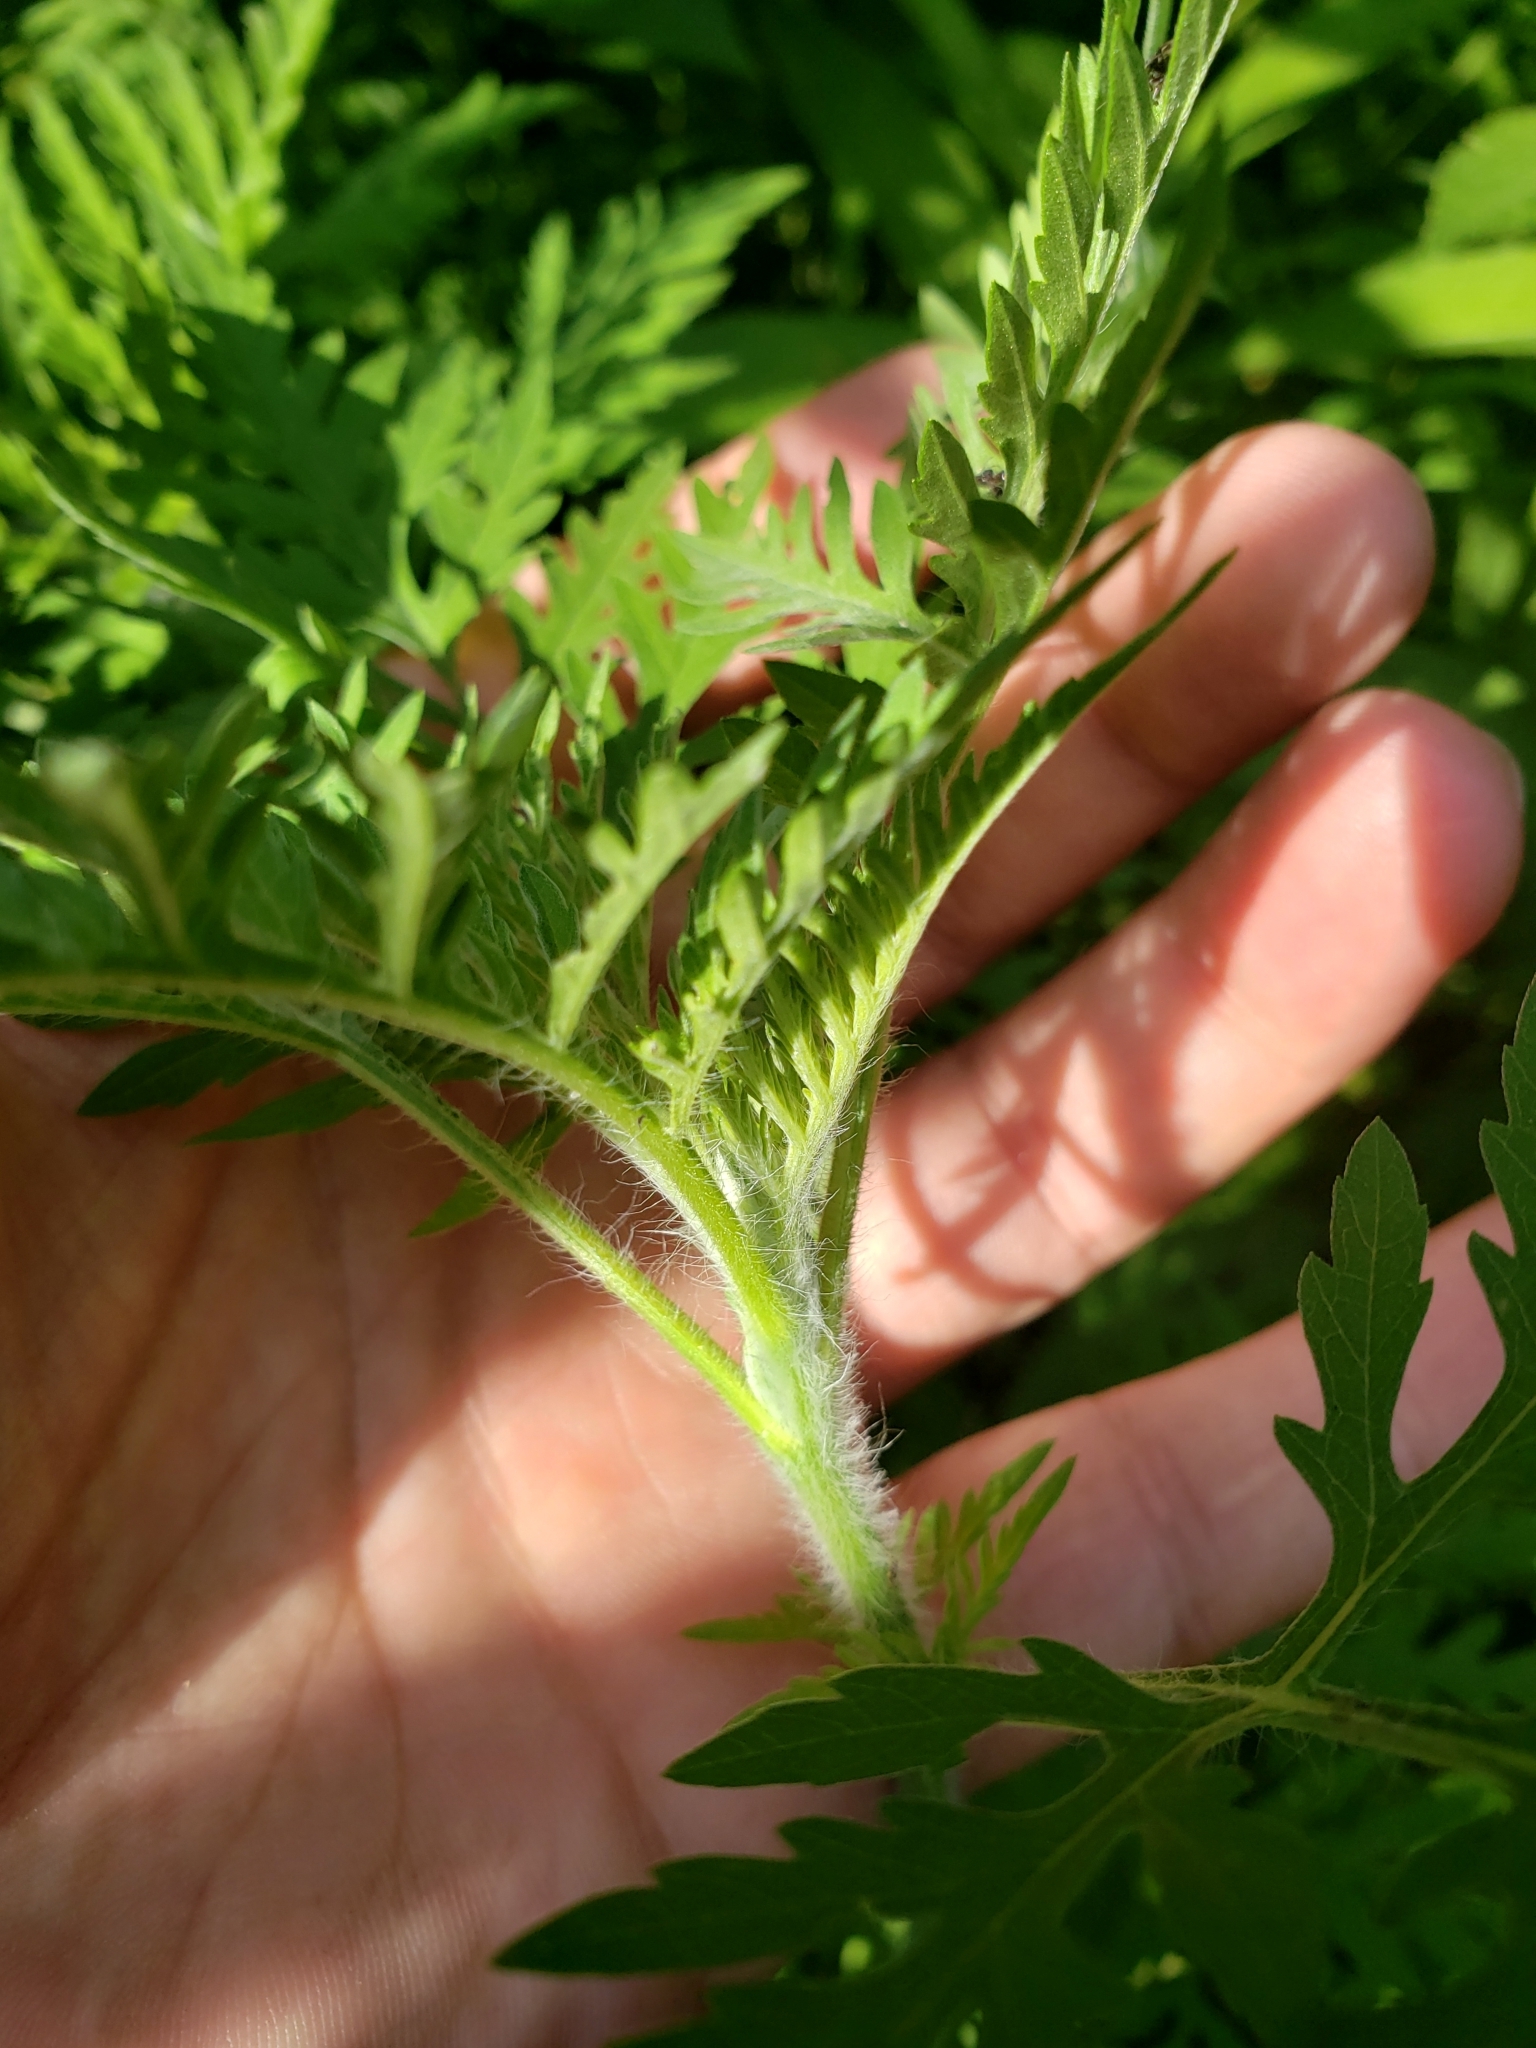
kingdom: Plantae
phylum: Tracheophyta
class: Magnoliopsida
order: Asterales
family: Asteraceae
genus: Ambrosia
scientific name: Ambrosia artemisiifolia
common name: Annual ragweed
